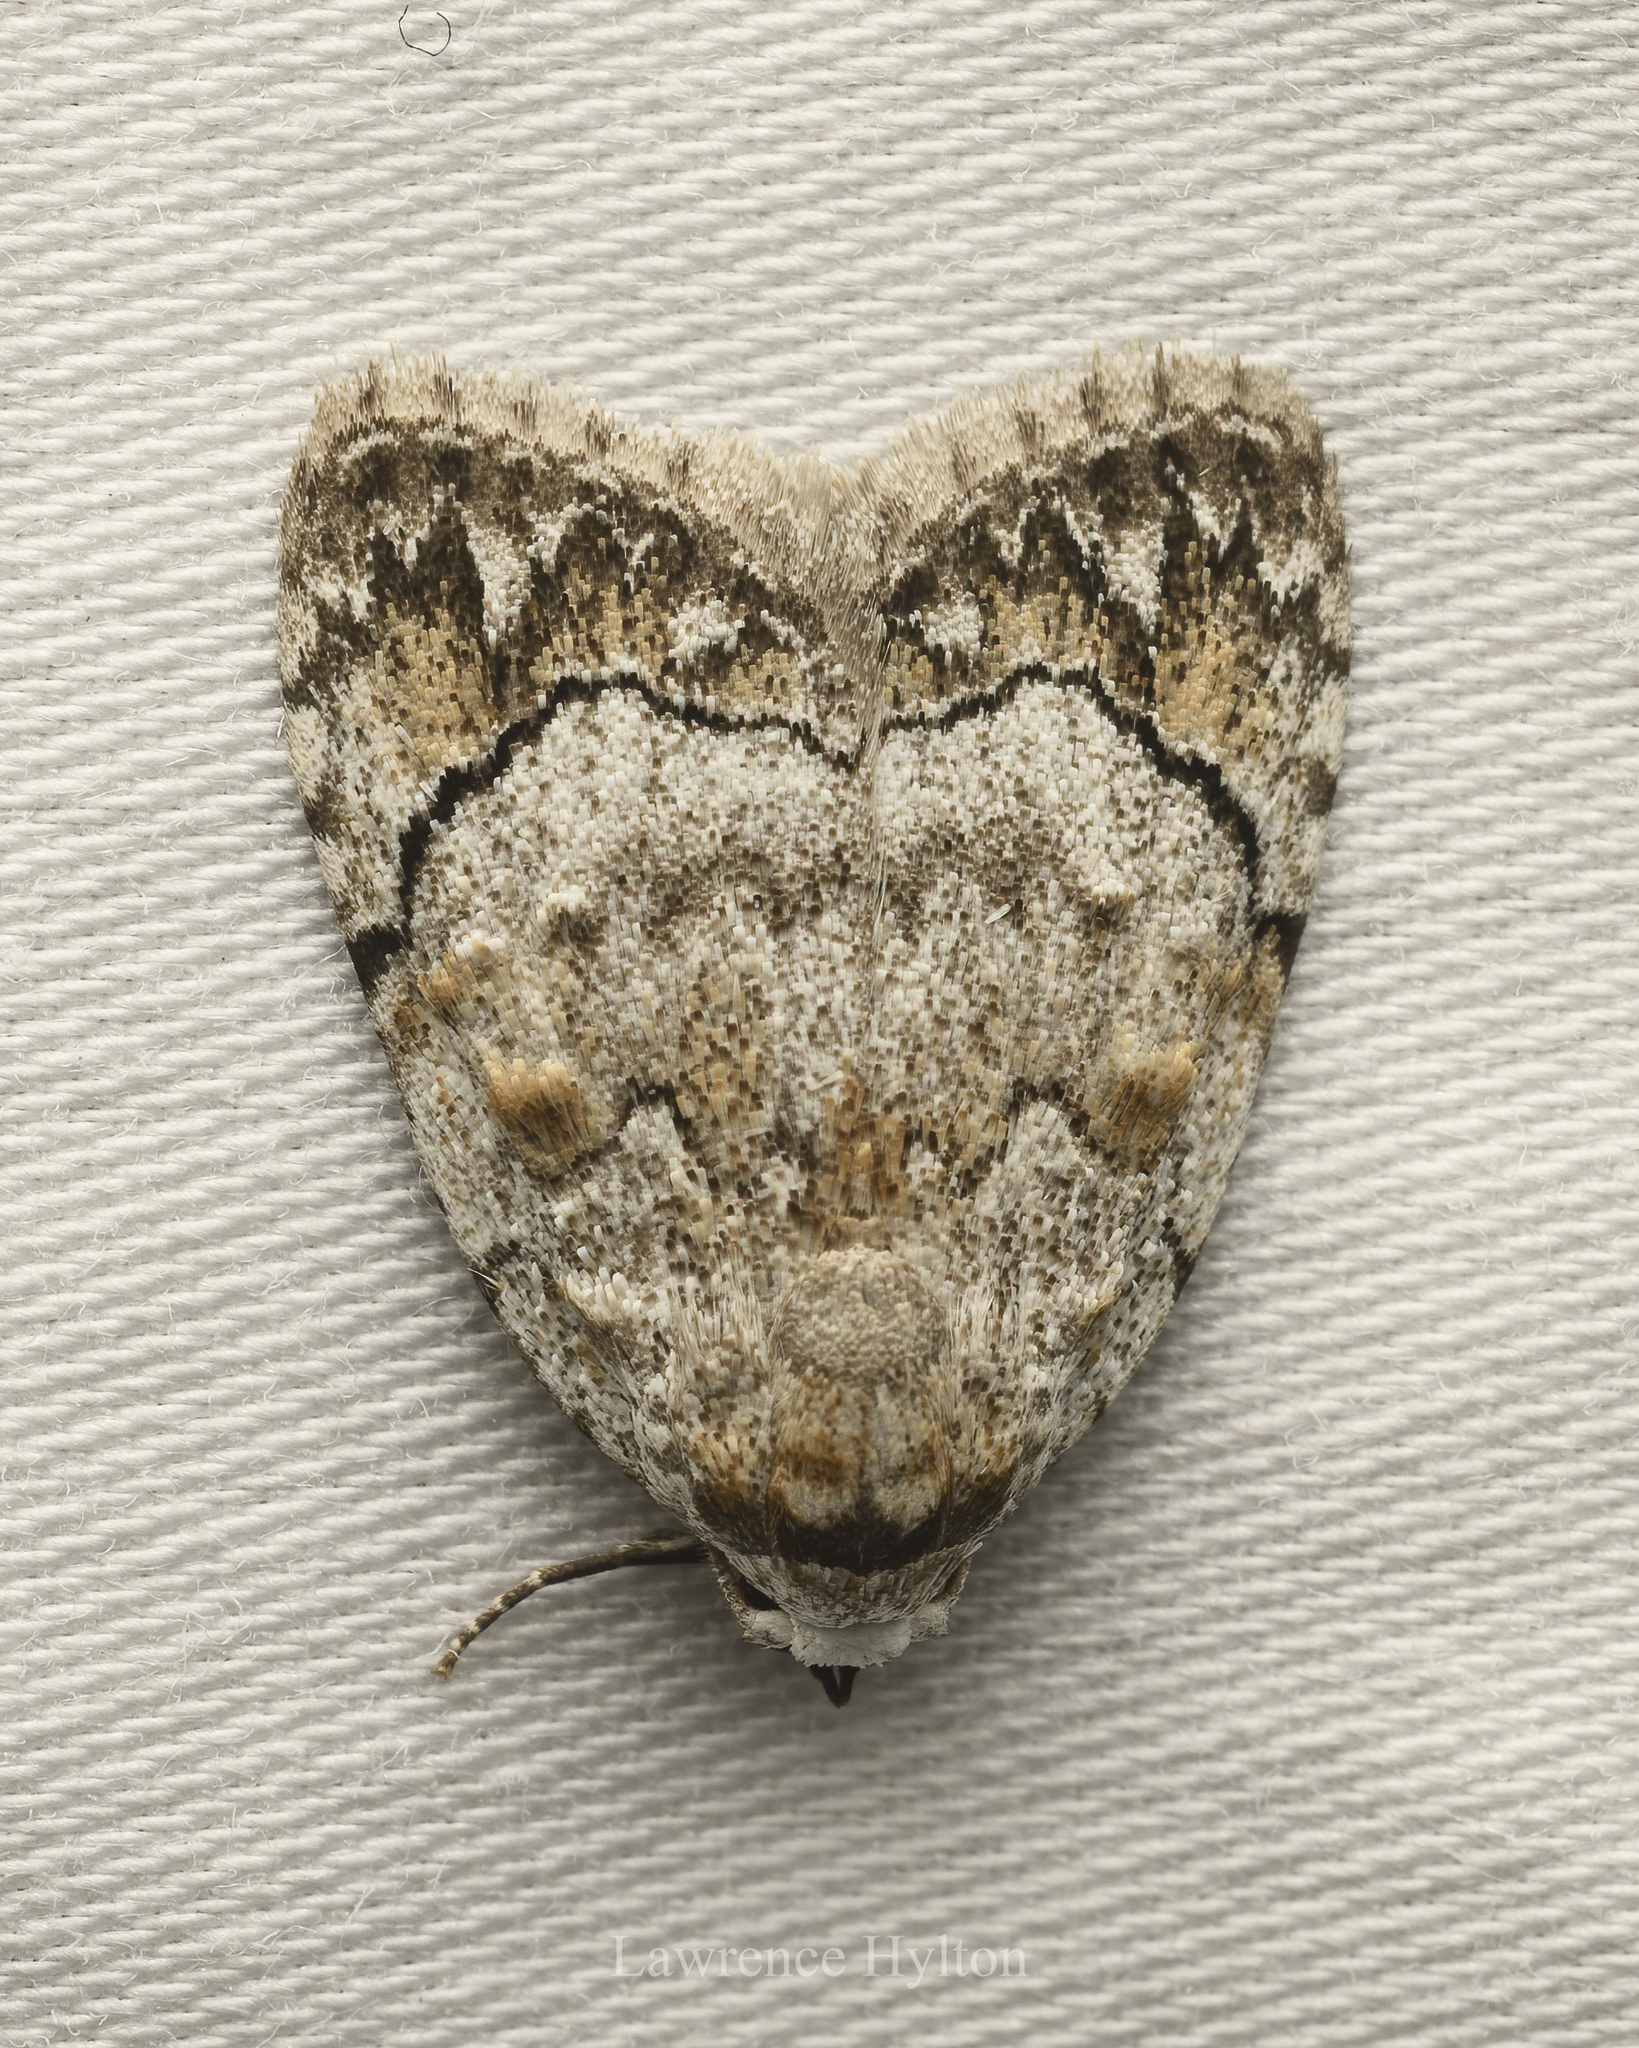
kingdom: Animalia
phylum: Arthropoda
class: Insecta
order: Lepidoptera
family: Nolidae
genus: Melanographia
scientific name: Melanographia flexilineata
